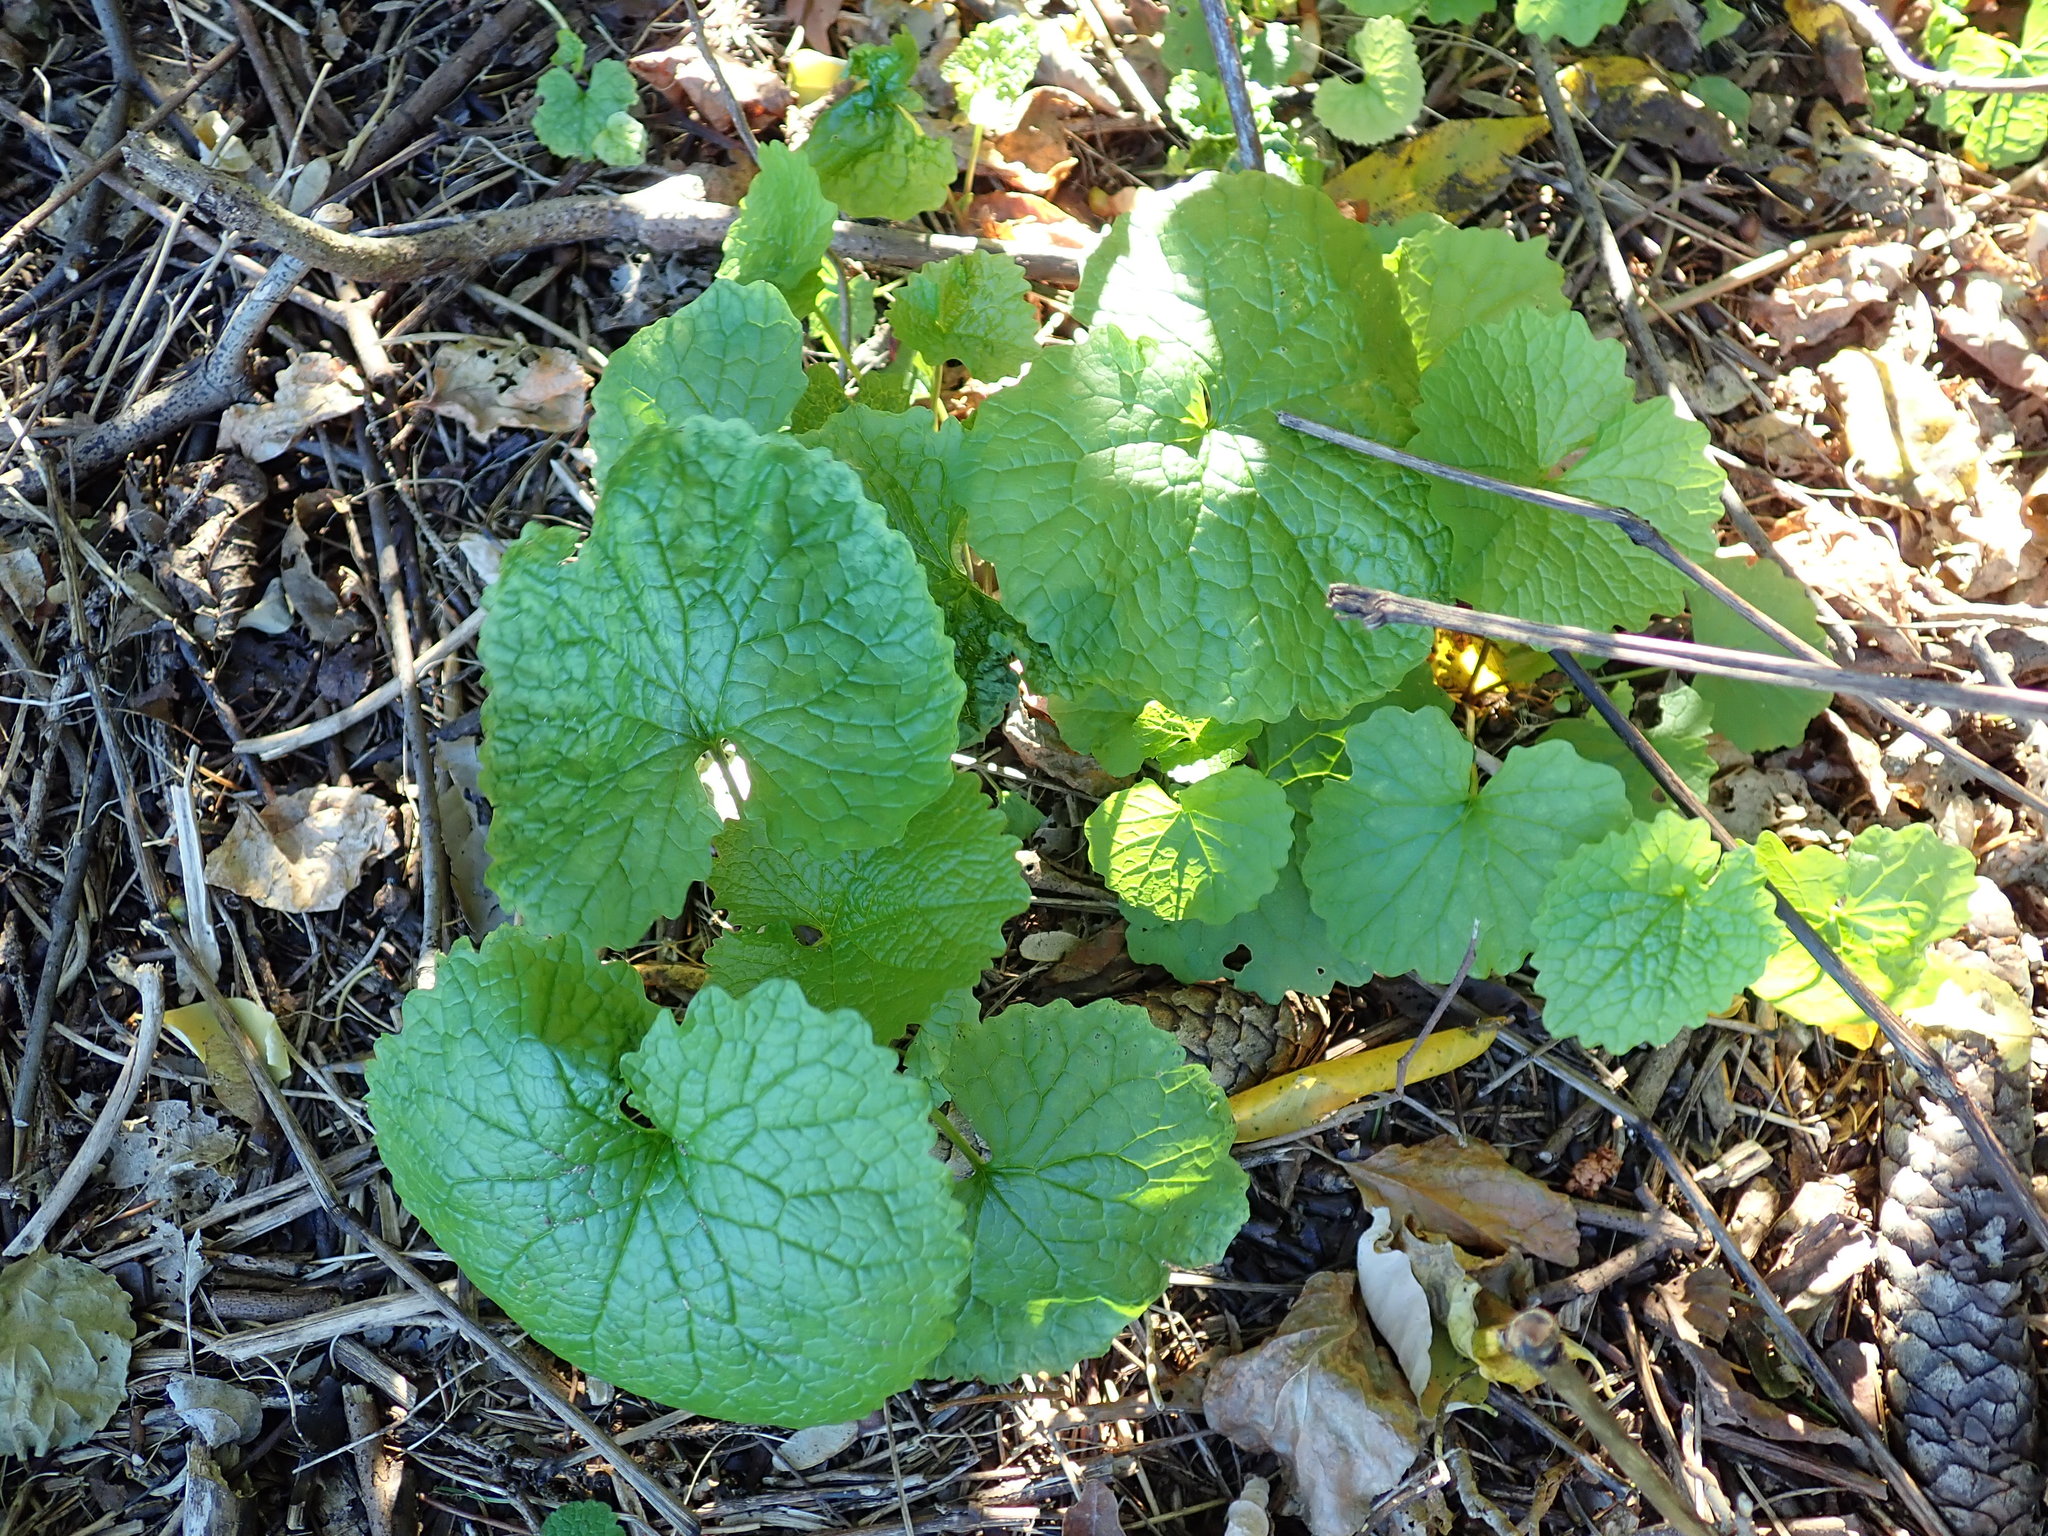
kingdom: Plantae
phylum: Tracheophyta
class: Magnoliopsida
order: Brassicales
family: Brassicaceae
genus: Alliaria
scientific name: Alliaria petiolata
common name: Garlic mustard
